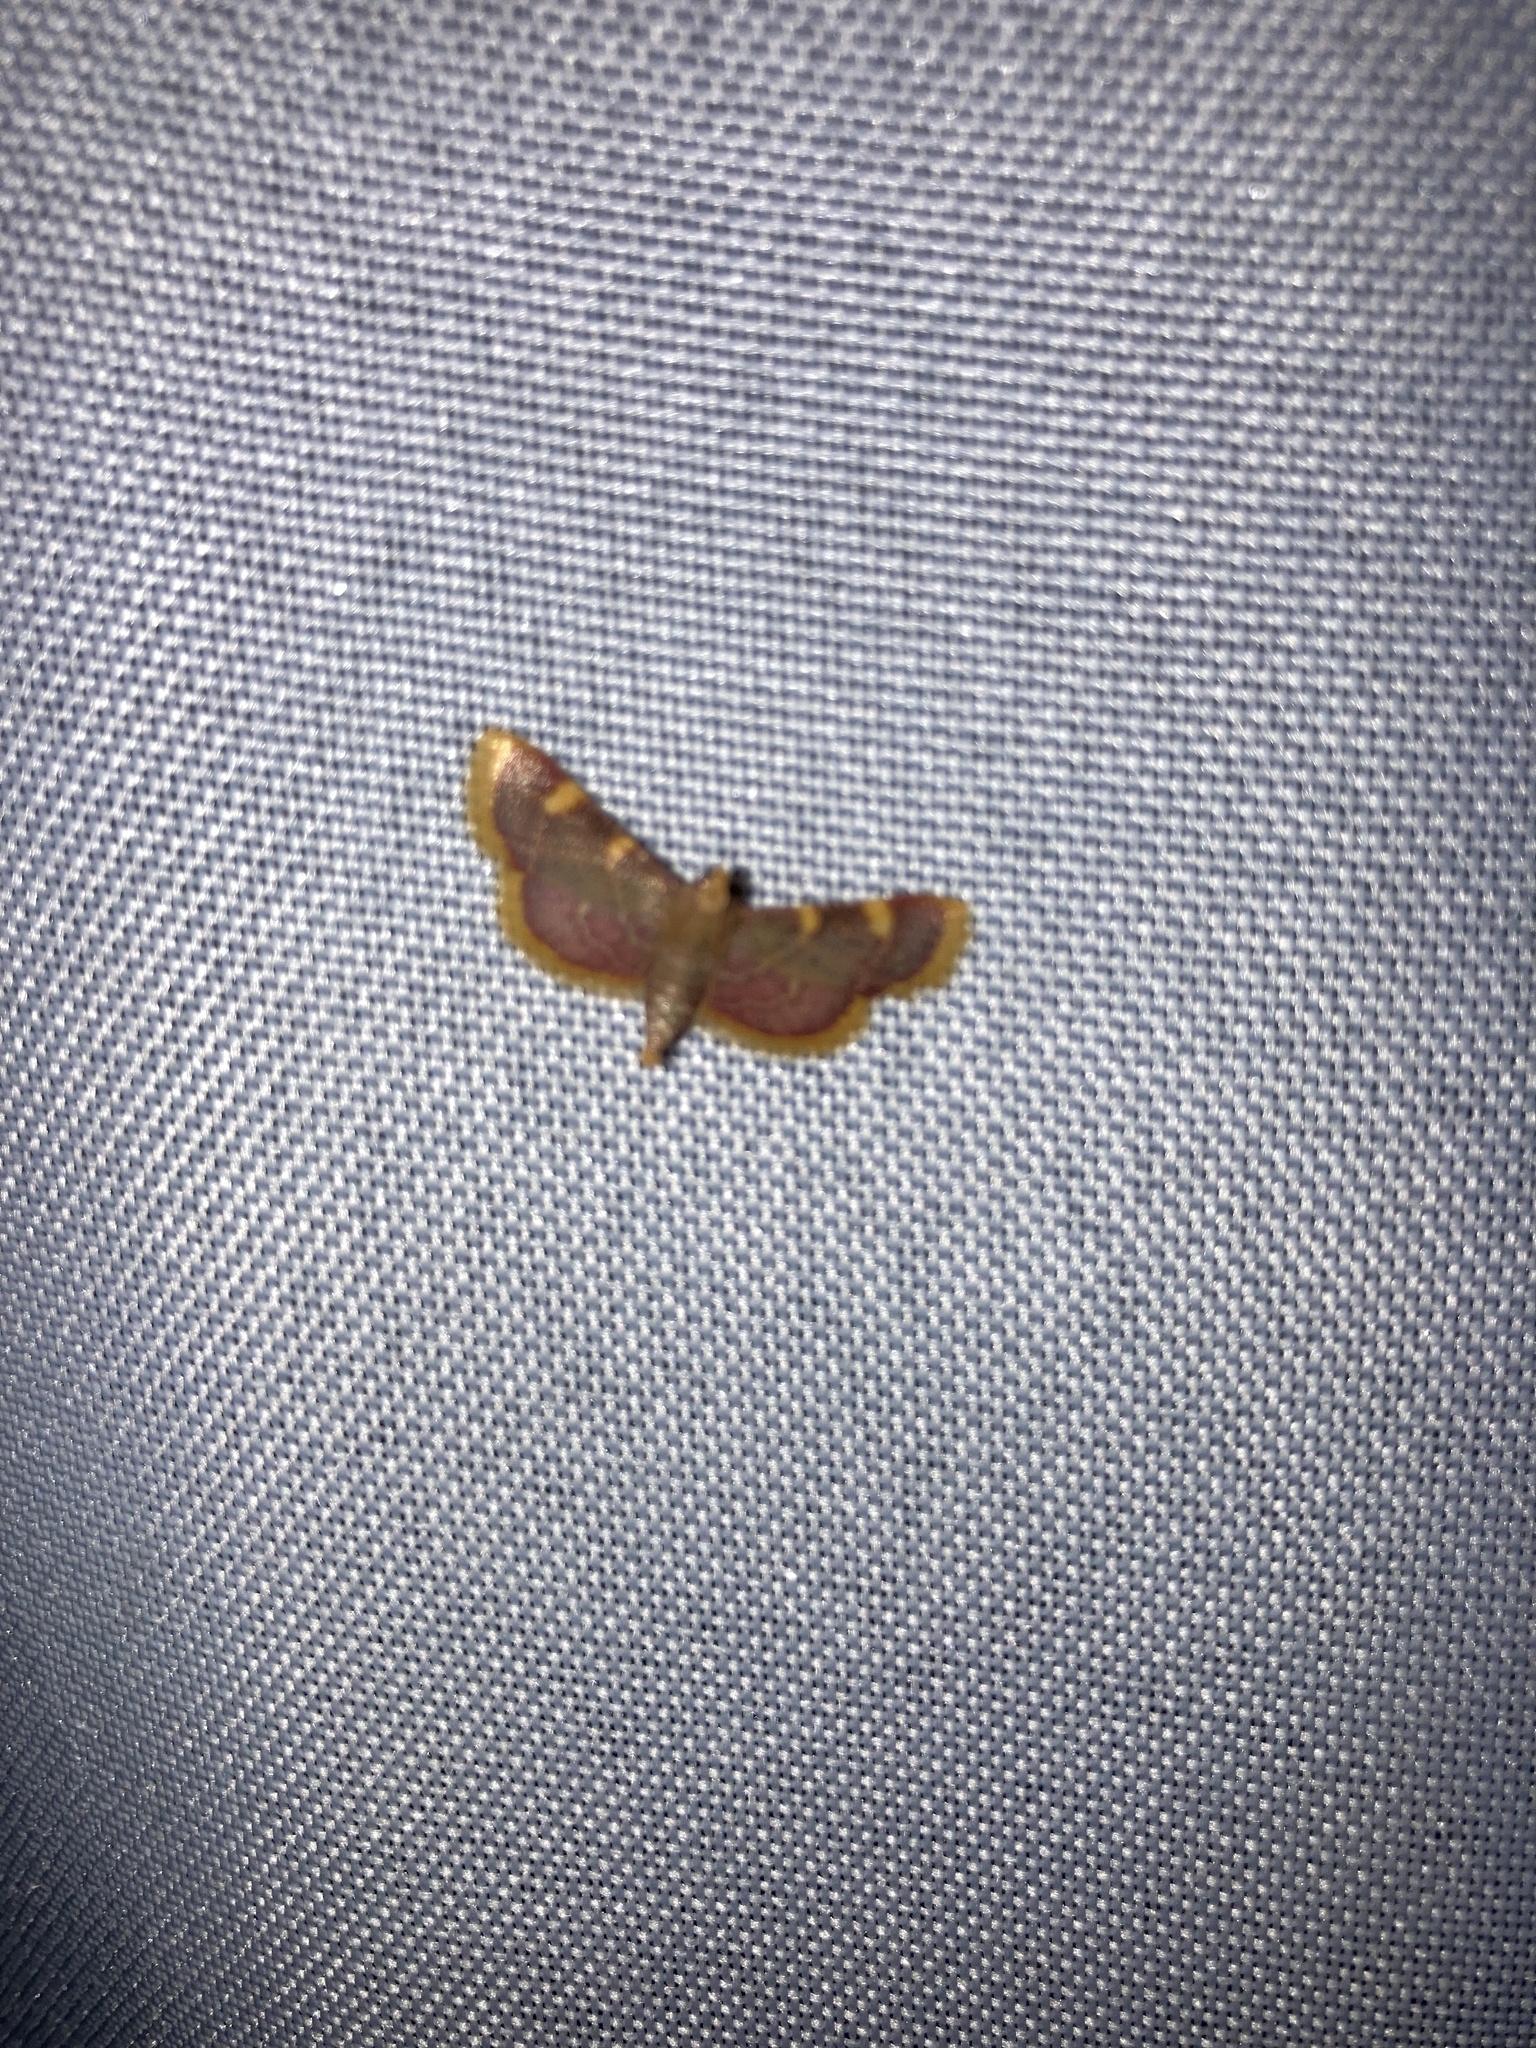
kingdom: Animalia
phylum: Arthropoda
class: Insecta
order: Lepidoptera
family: Pyralidae
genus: Hypsopygia
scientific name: Hypsopygia costalis
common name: Gold triangle
